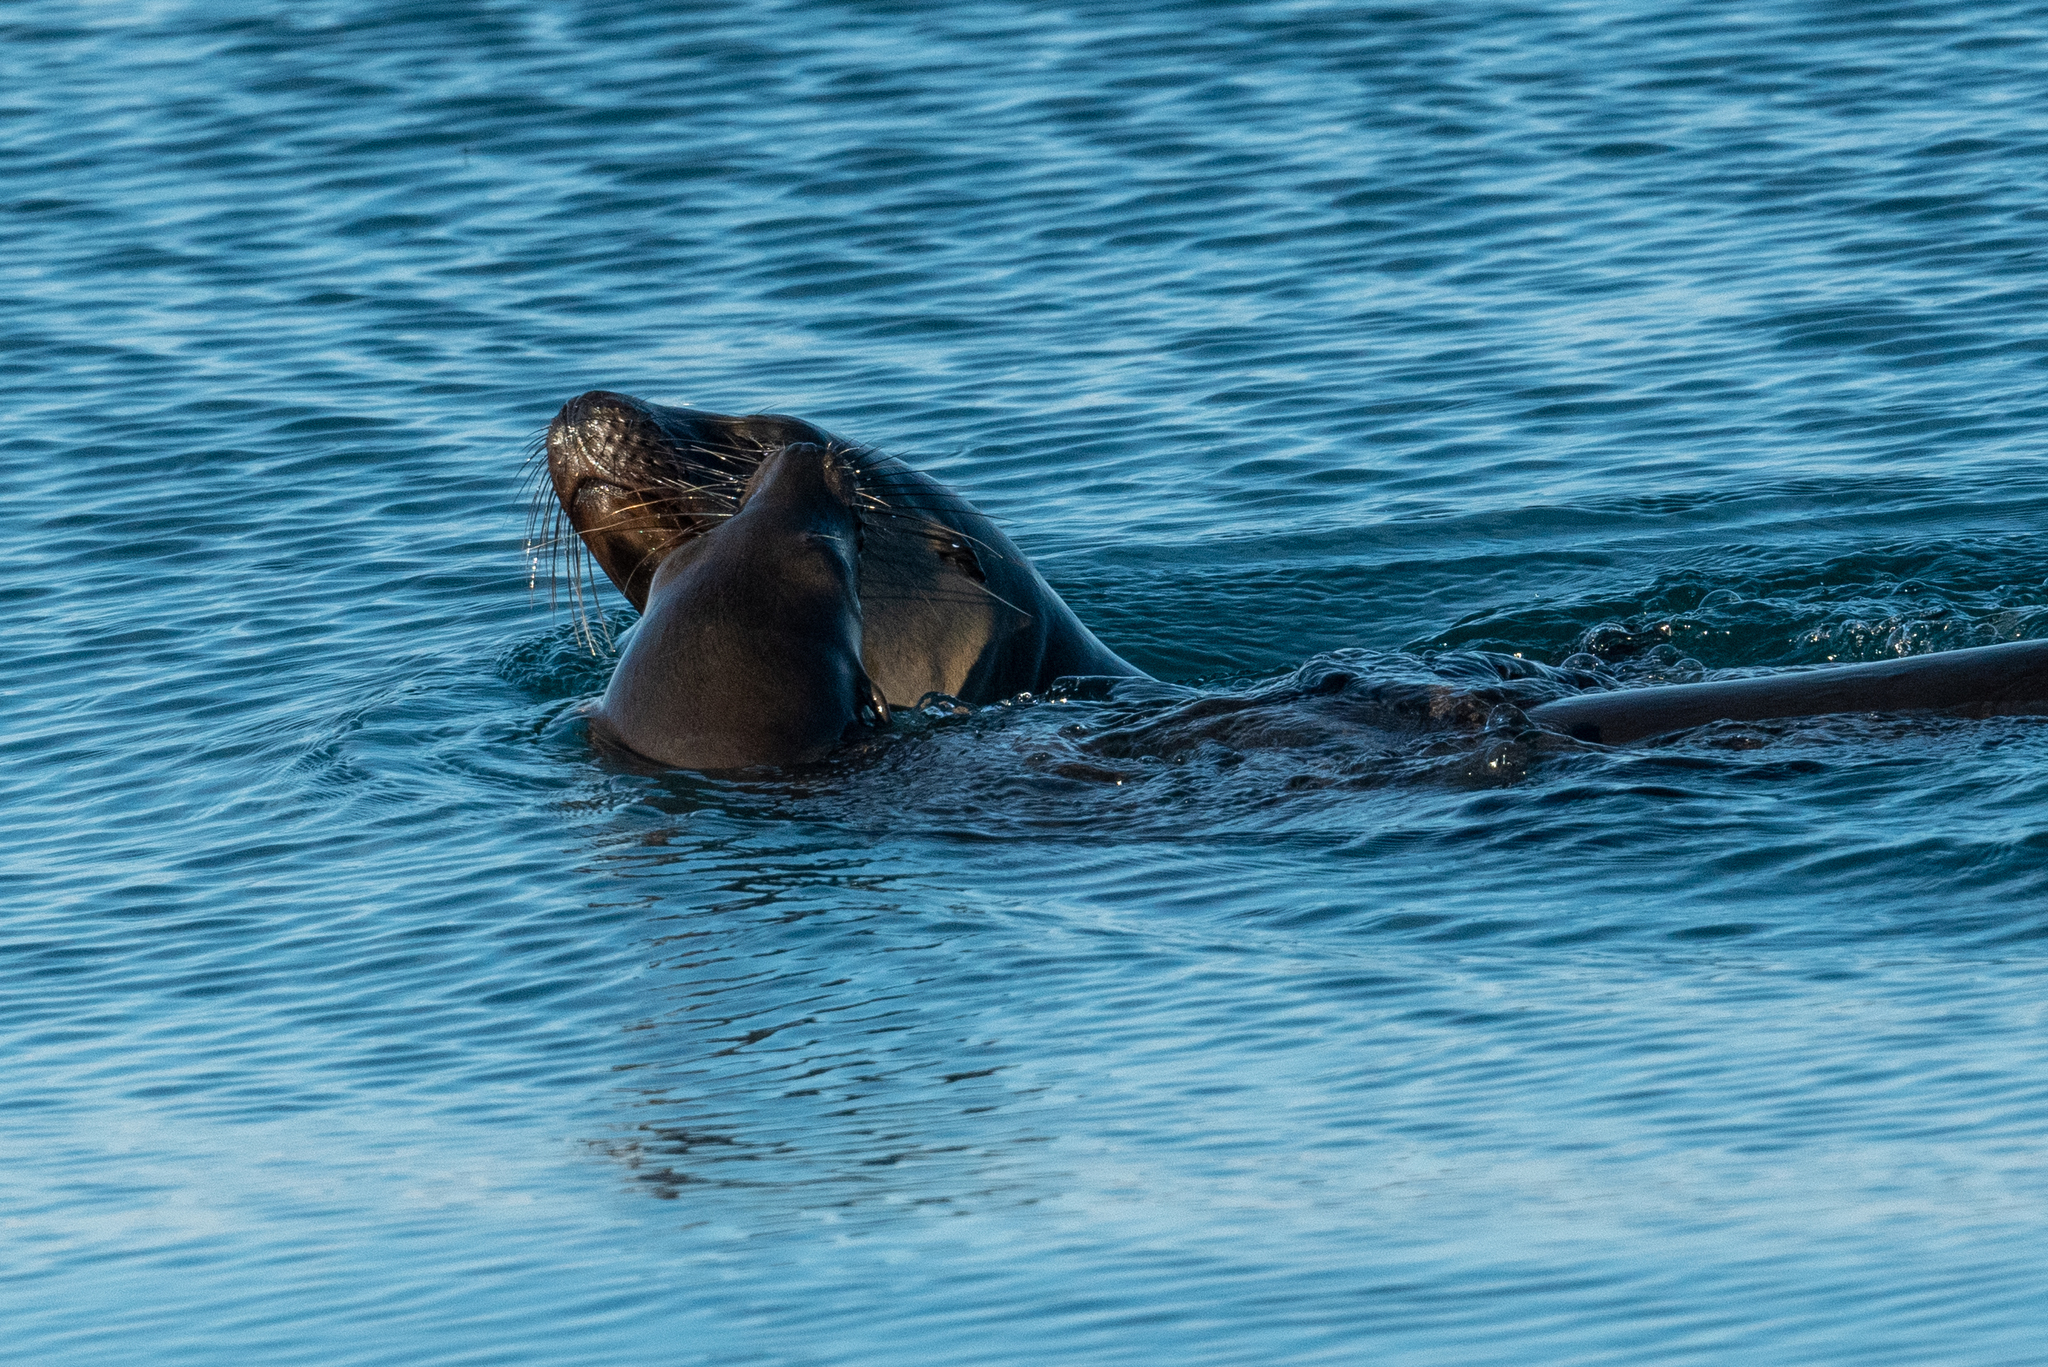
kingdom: Animalia
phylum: Chordata
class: Mammalia
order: Carnivora
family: Otariidae
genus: Zalophus
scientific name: Zalophus californianus
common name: California sea lion
